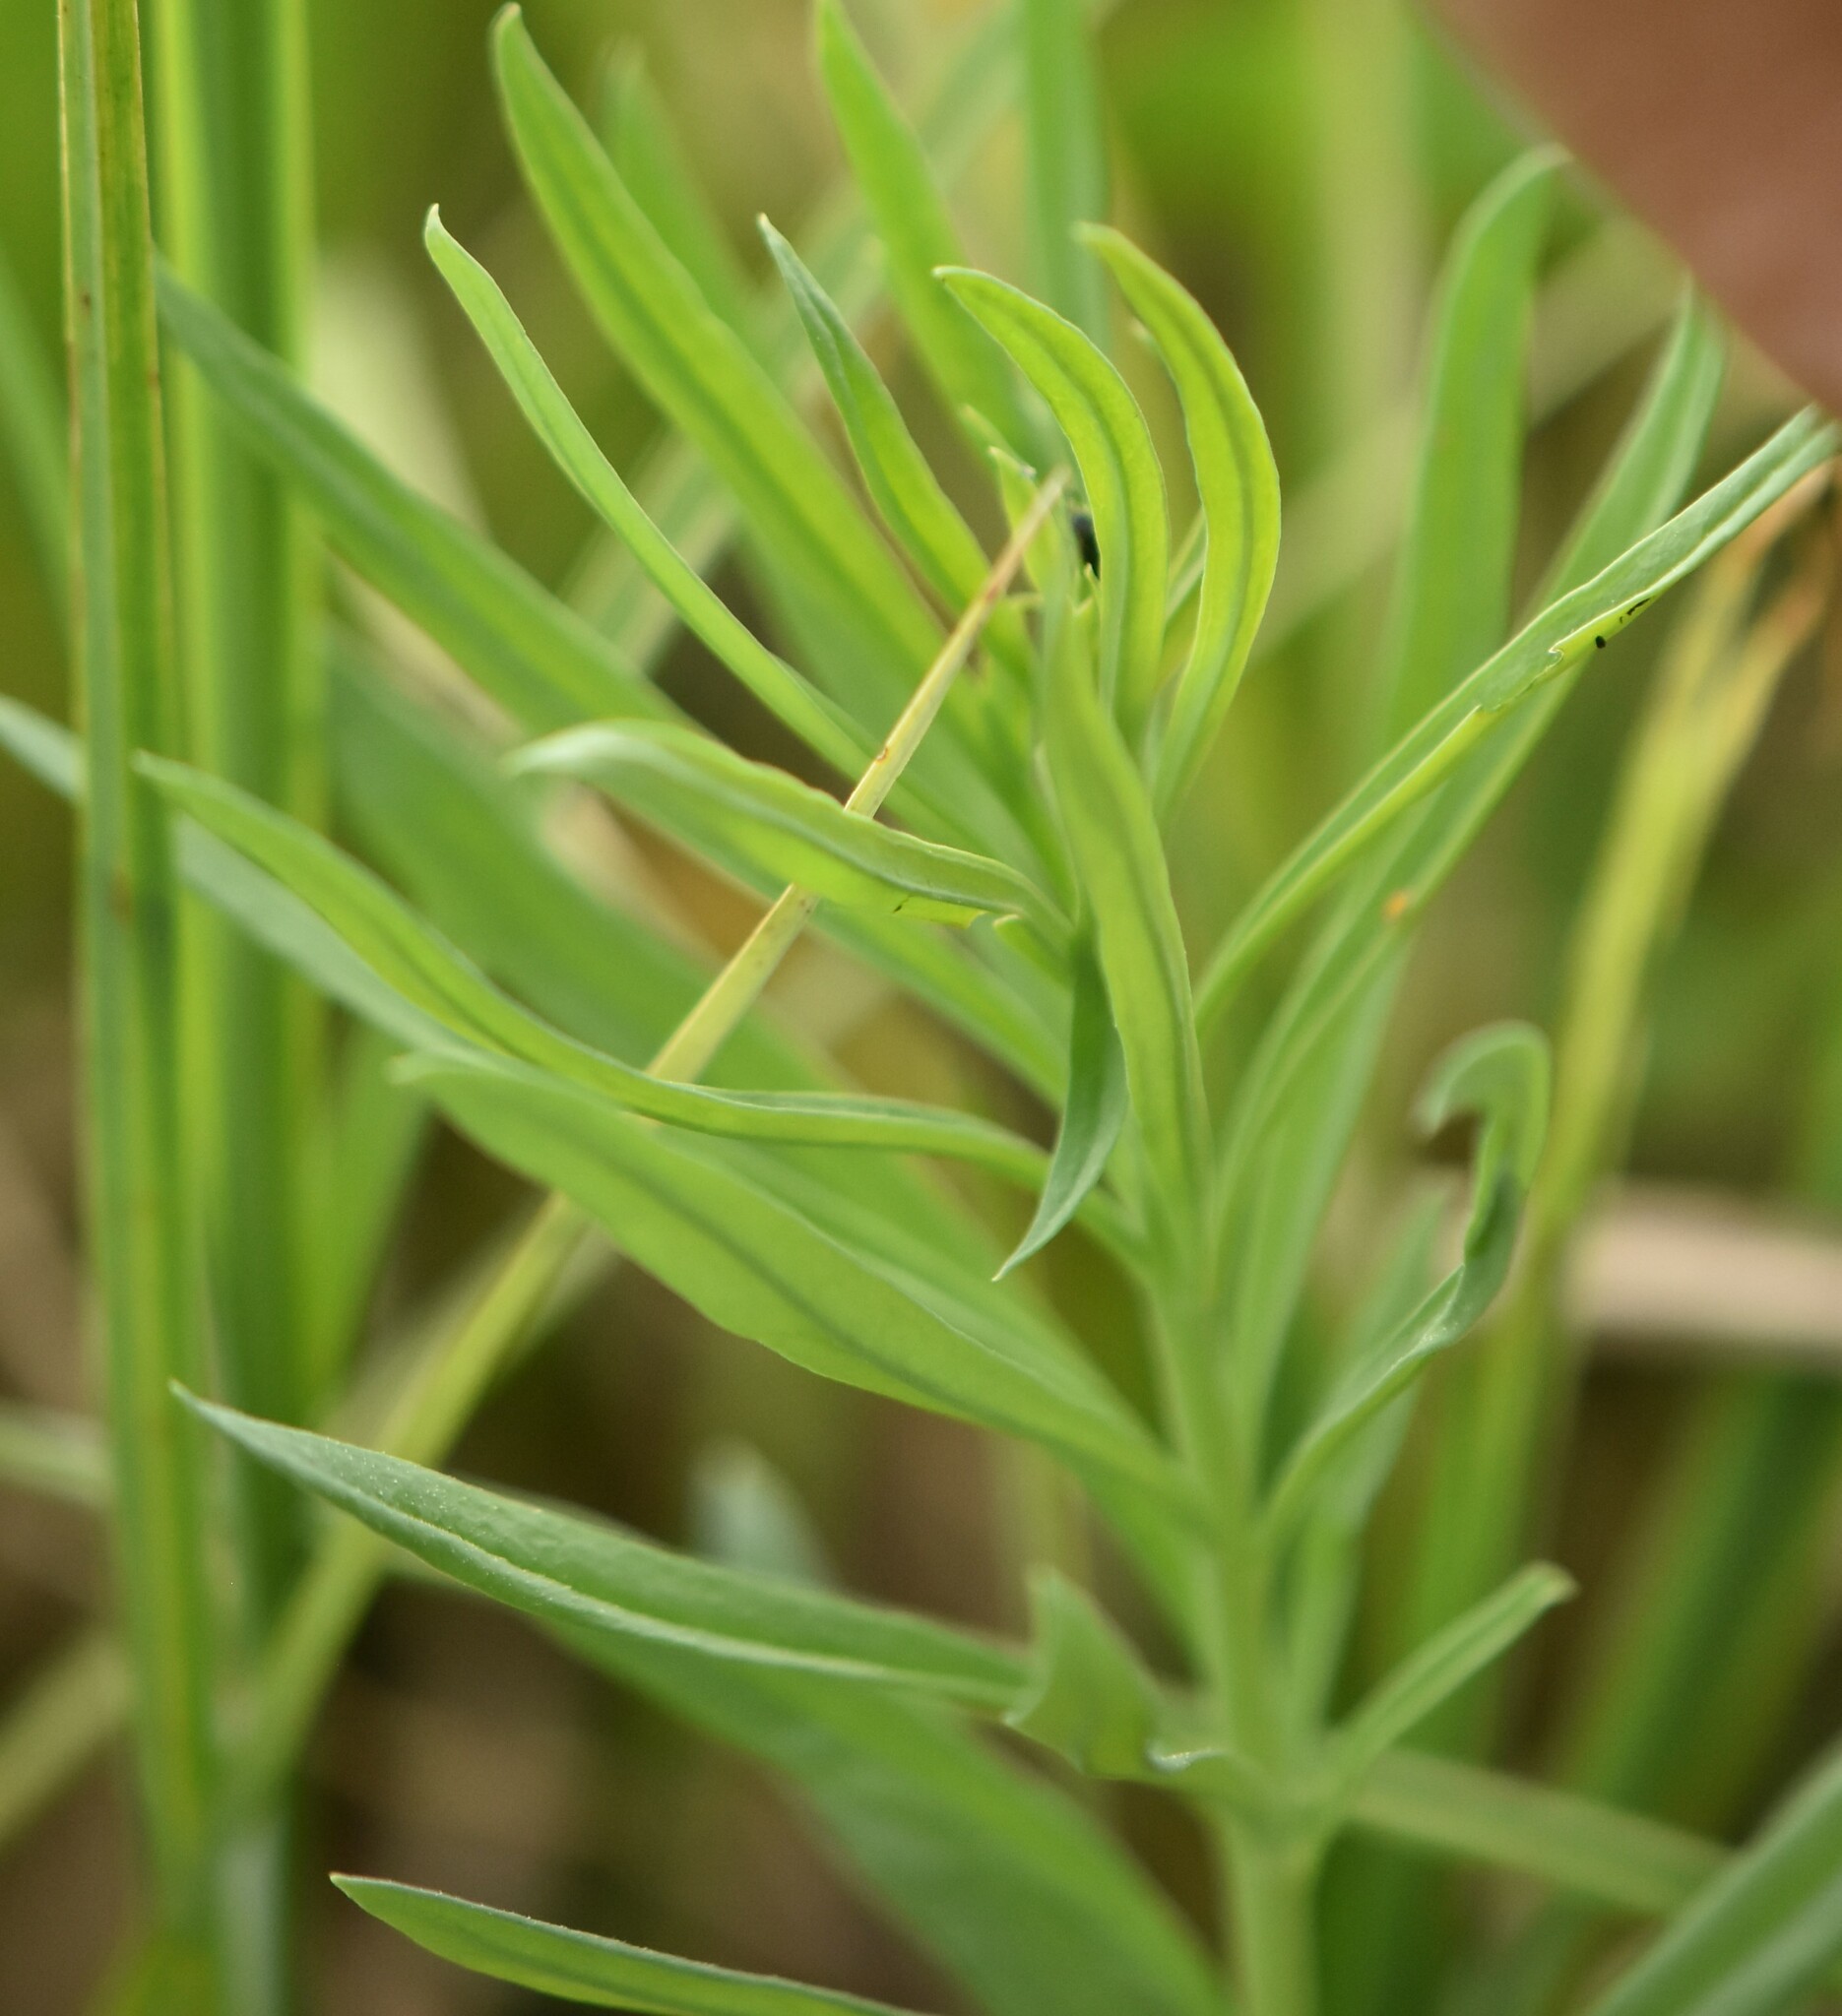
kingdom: Plantae
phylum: Tracheophyta
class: Magnoliopsida
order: Lamiales
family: Plantaginaceae
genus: Linaria
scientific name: Linaria vulgaris
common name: Butter and eggs
